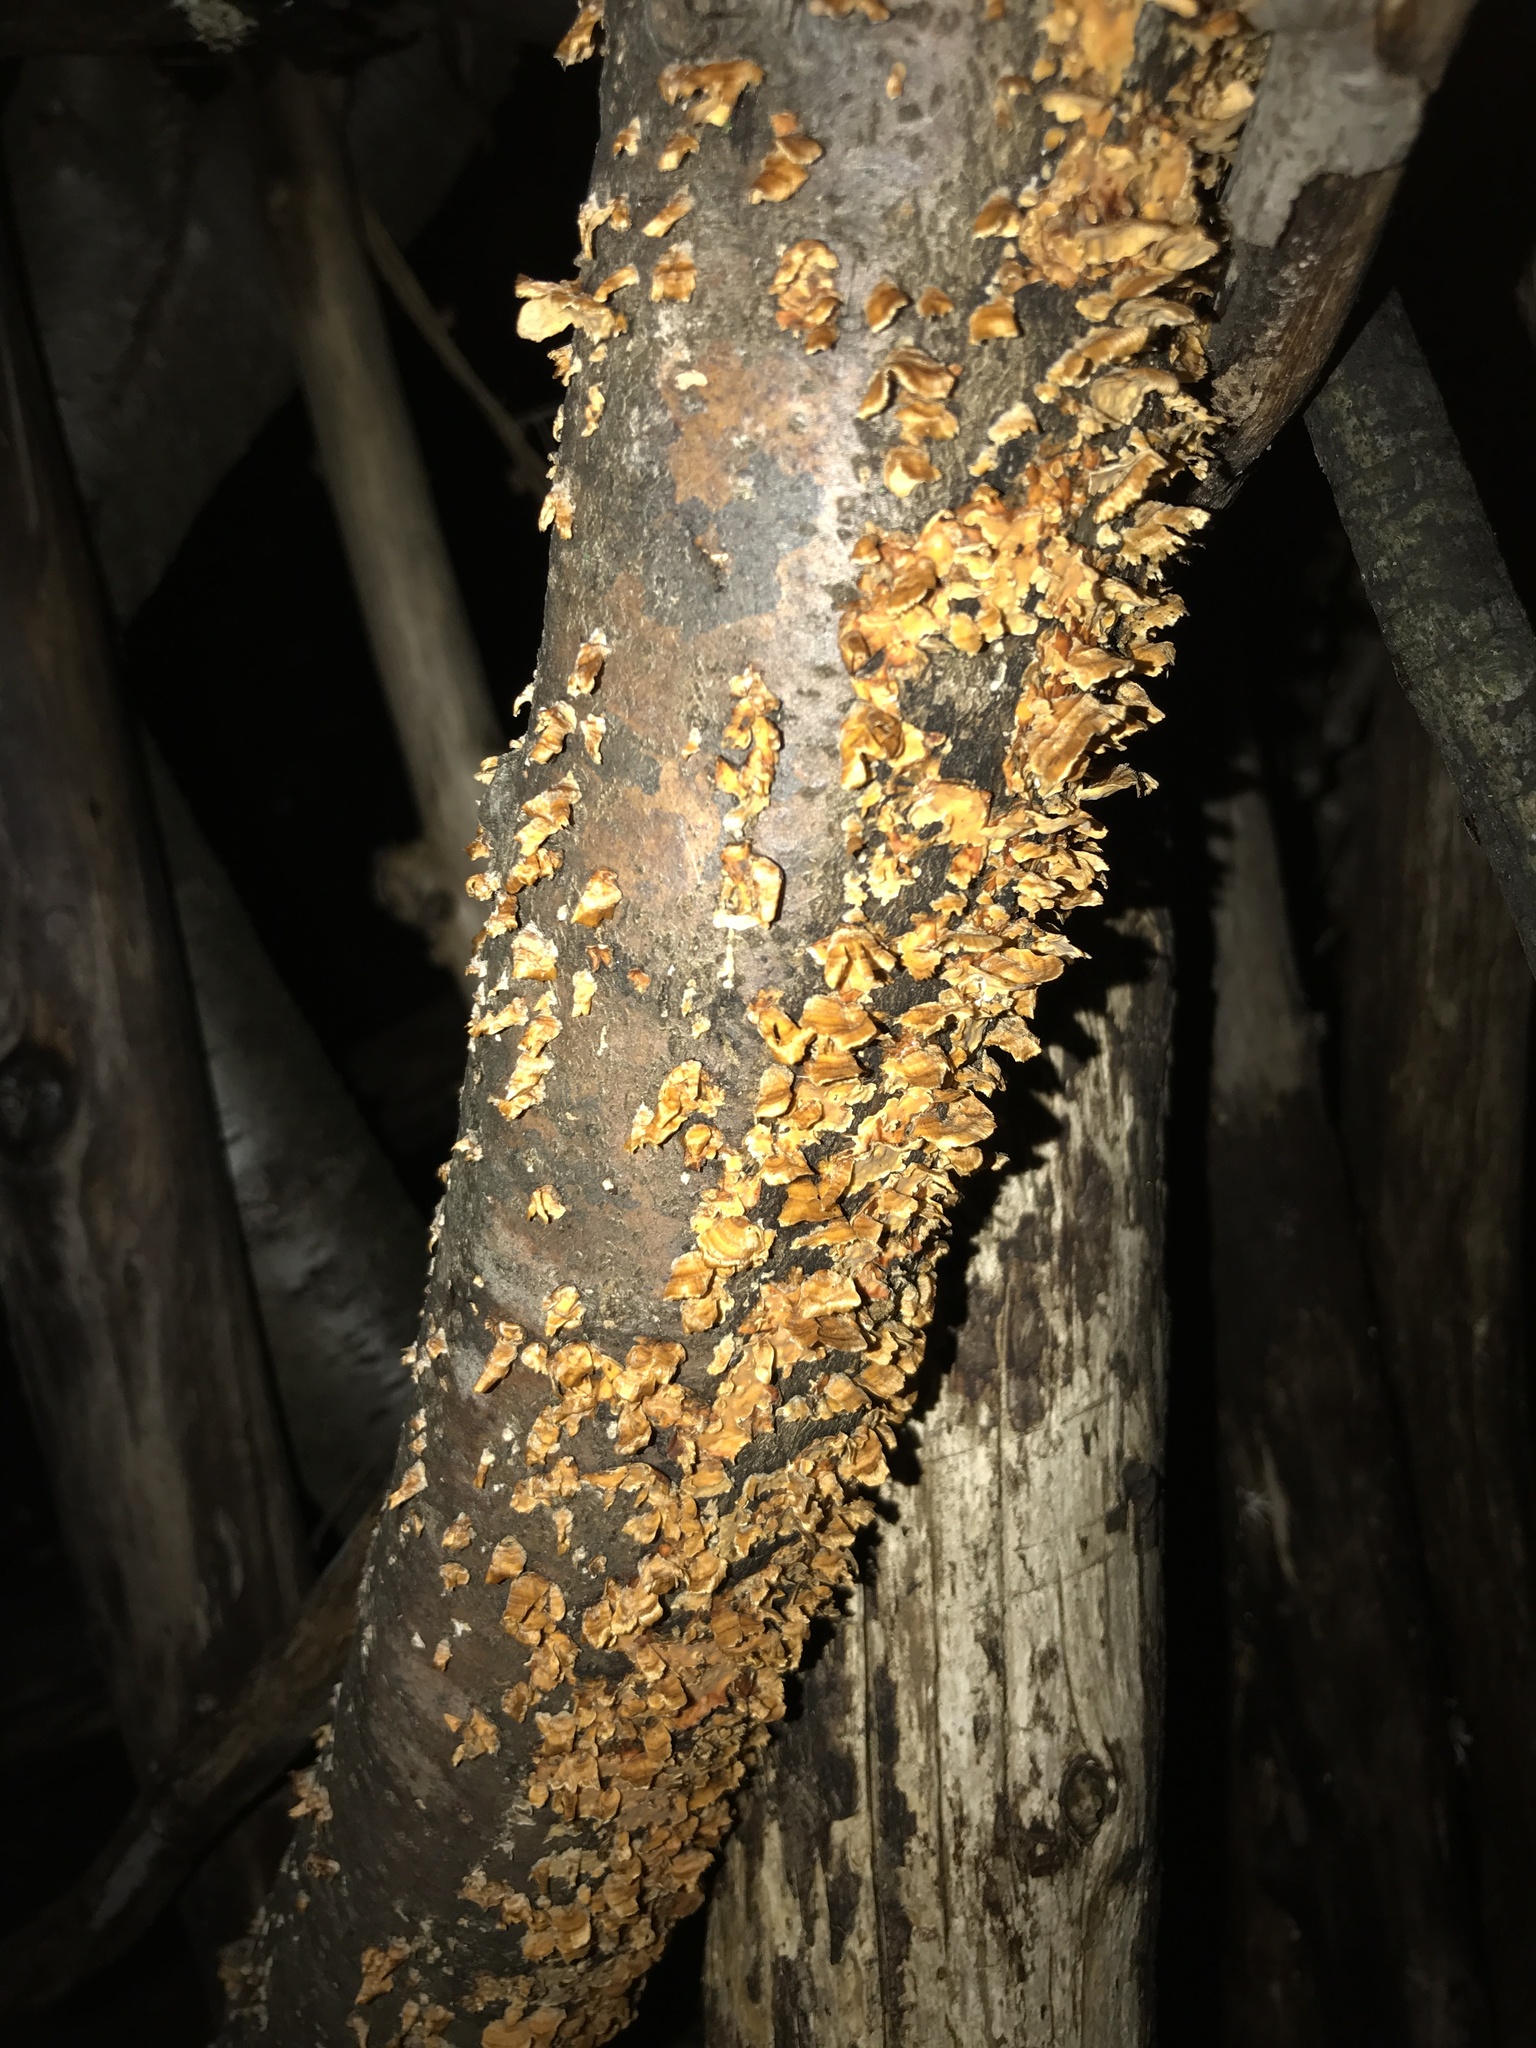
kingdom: Fungi
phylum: Basidiomycota
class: Agaricomycetes
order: Russulales
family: Stereaceae
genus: Stereum
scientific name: Stereum complicatum
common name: Crowded parchment
